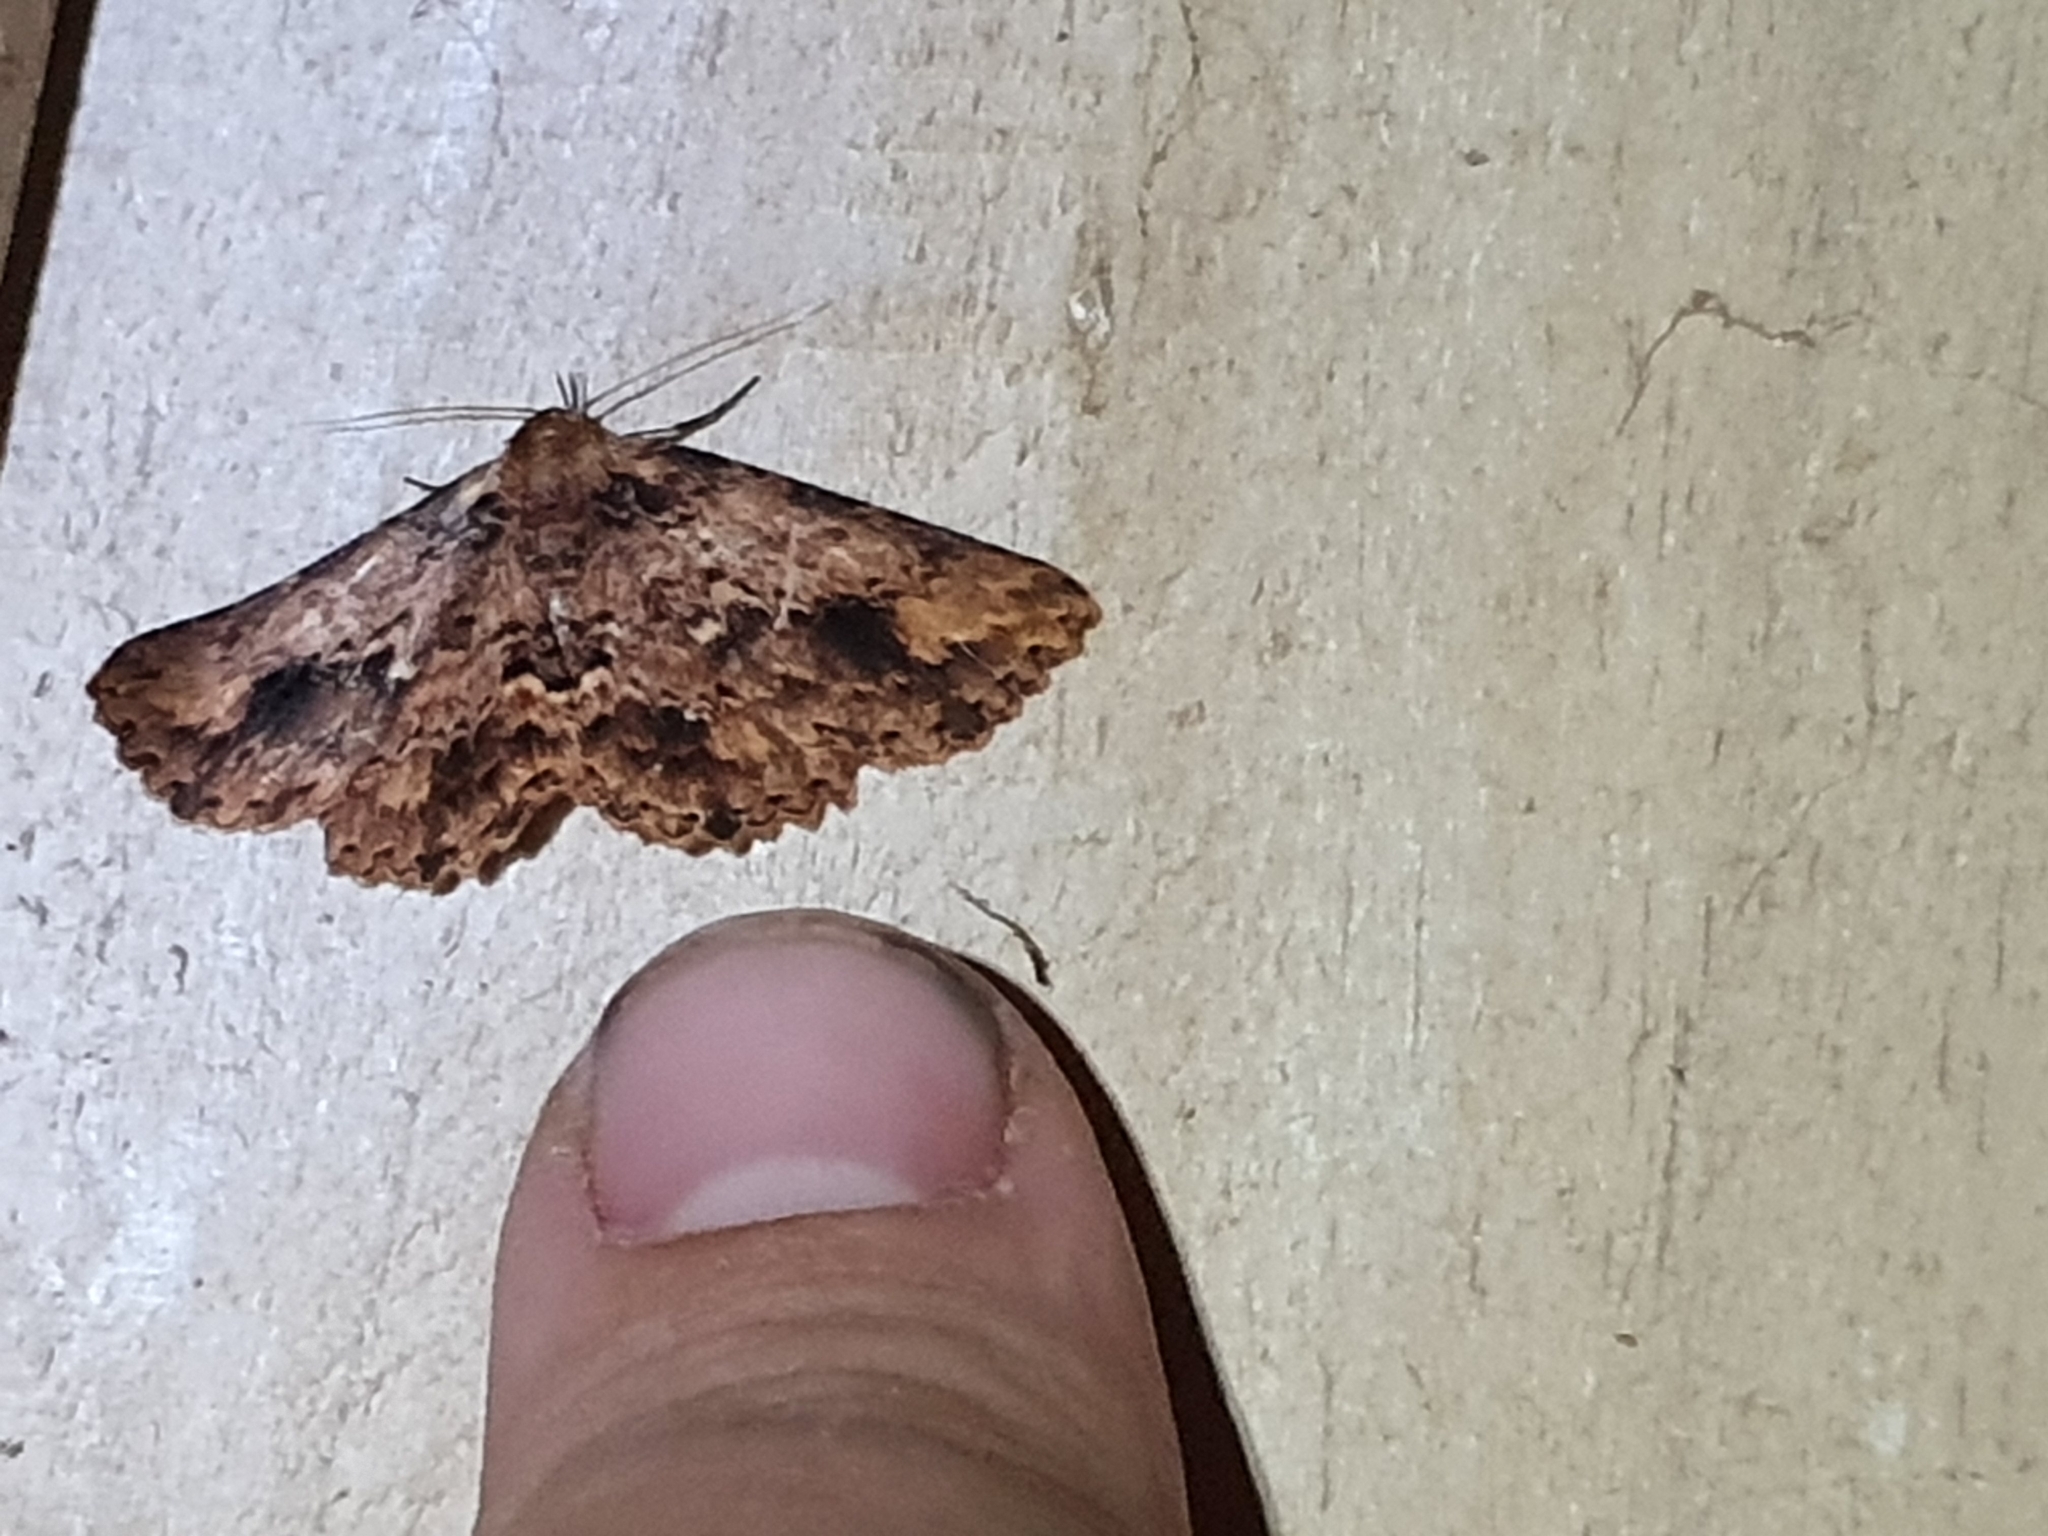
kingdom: Animalia
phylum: Arthropoda
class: Insecta
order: Lepidoptera
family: Erebidae
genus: Artigisa
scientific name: Artigisa melanephele
